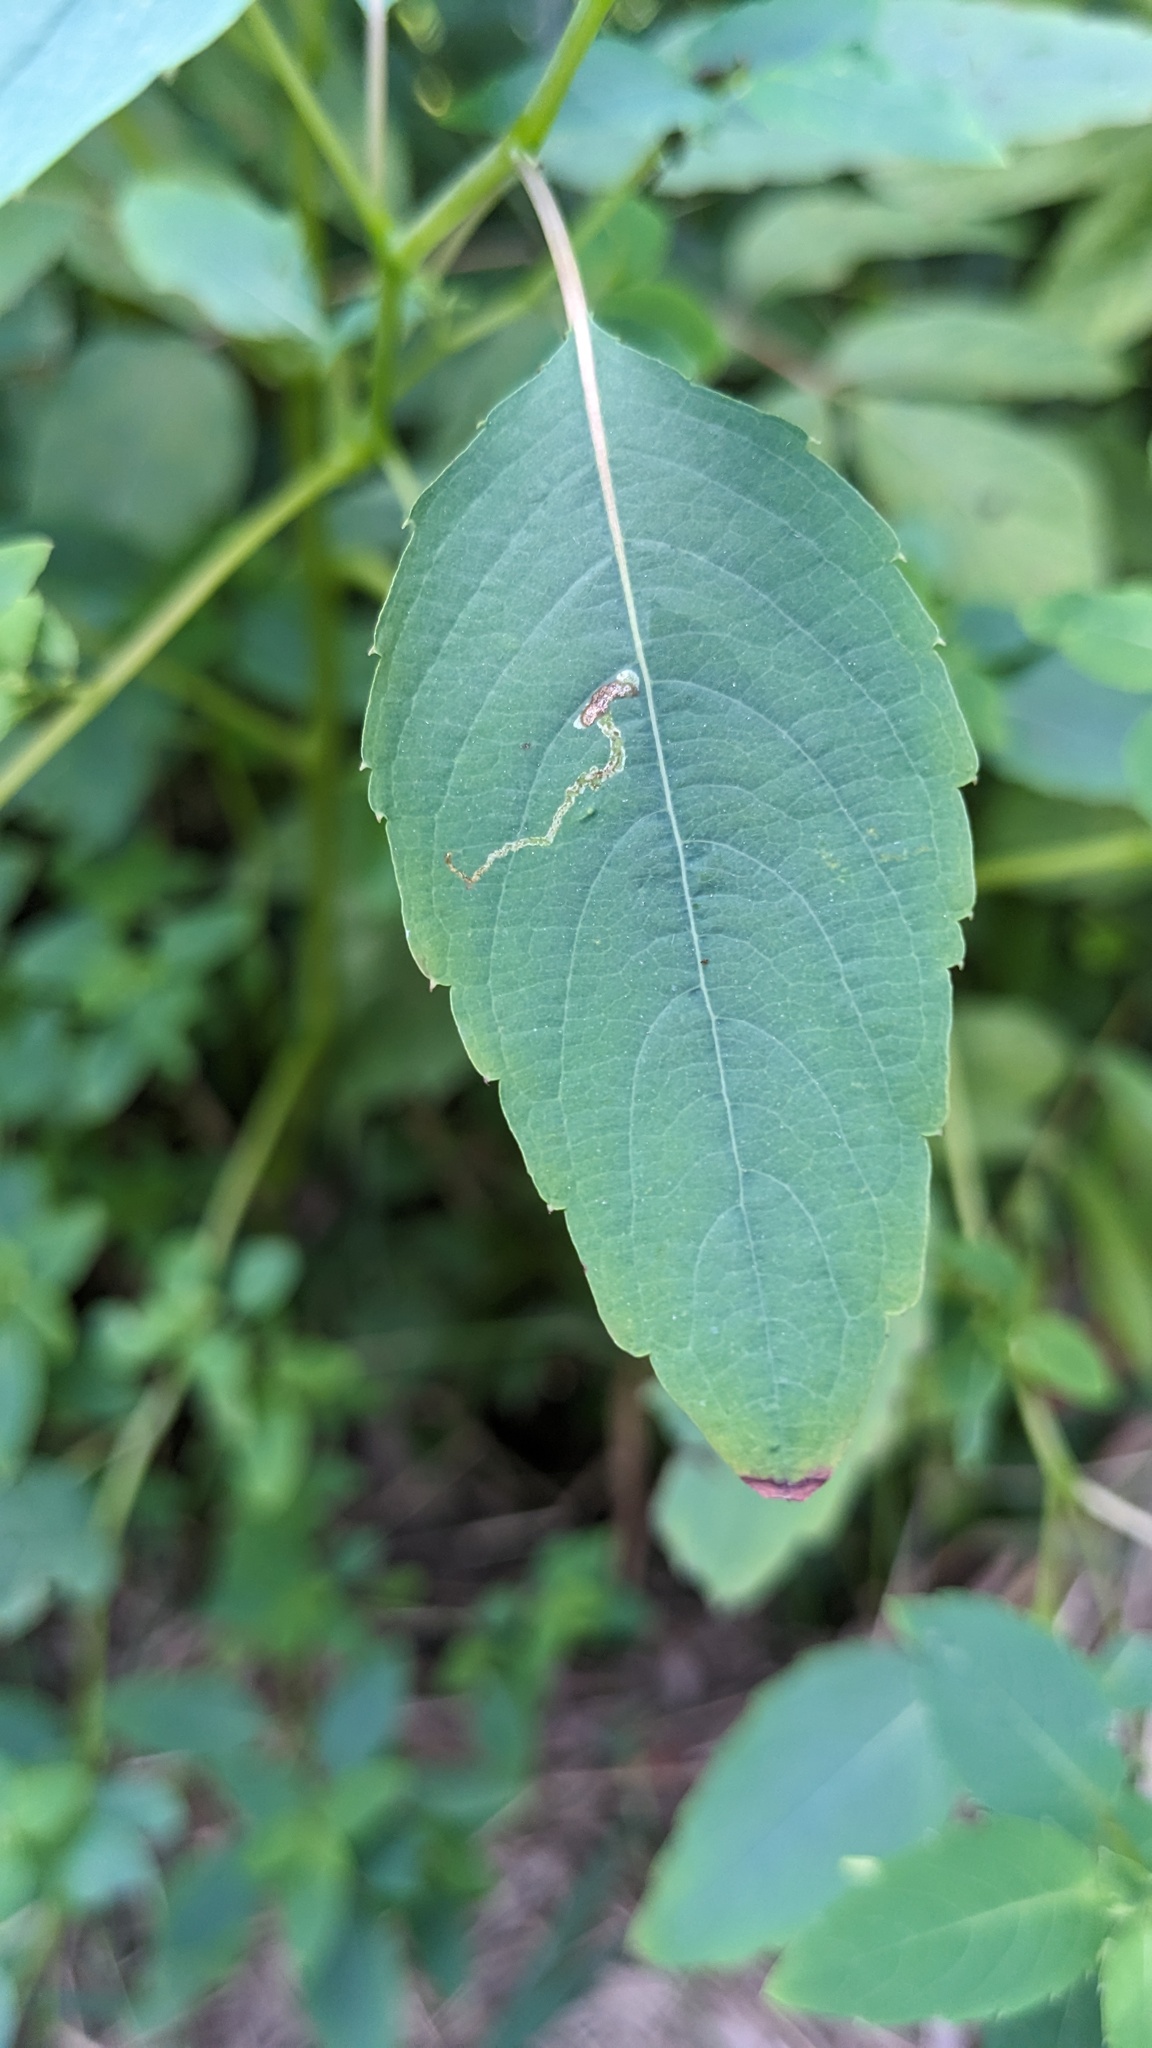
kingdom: Animalia
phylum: Arthropoda
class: Insecta
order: Diptera
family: Agromyzidae
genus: Phytoliriomyza
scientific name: Phytoliriomyza melampyga
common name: Jewelweed leaf-miner fly
